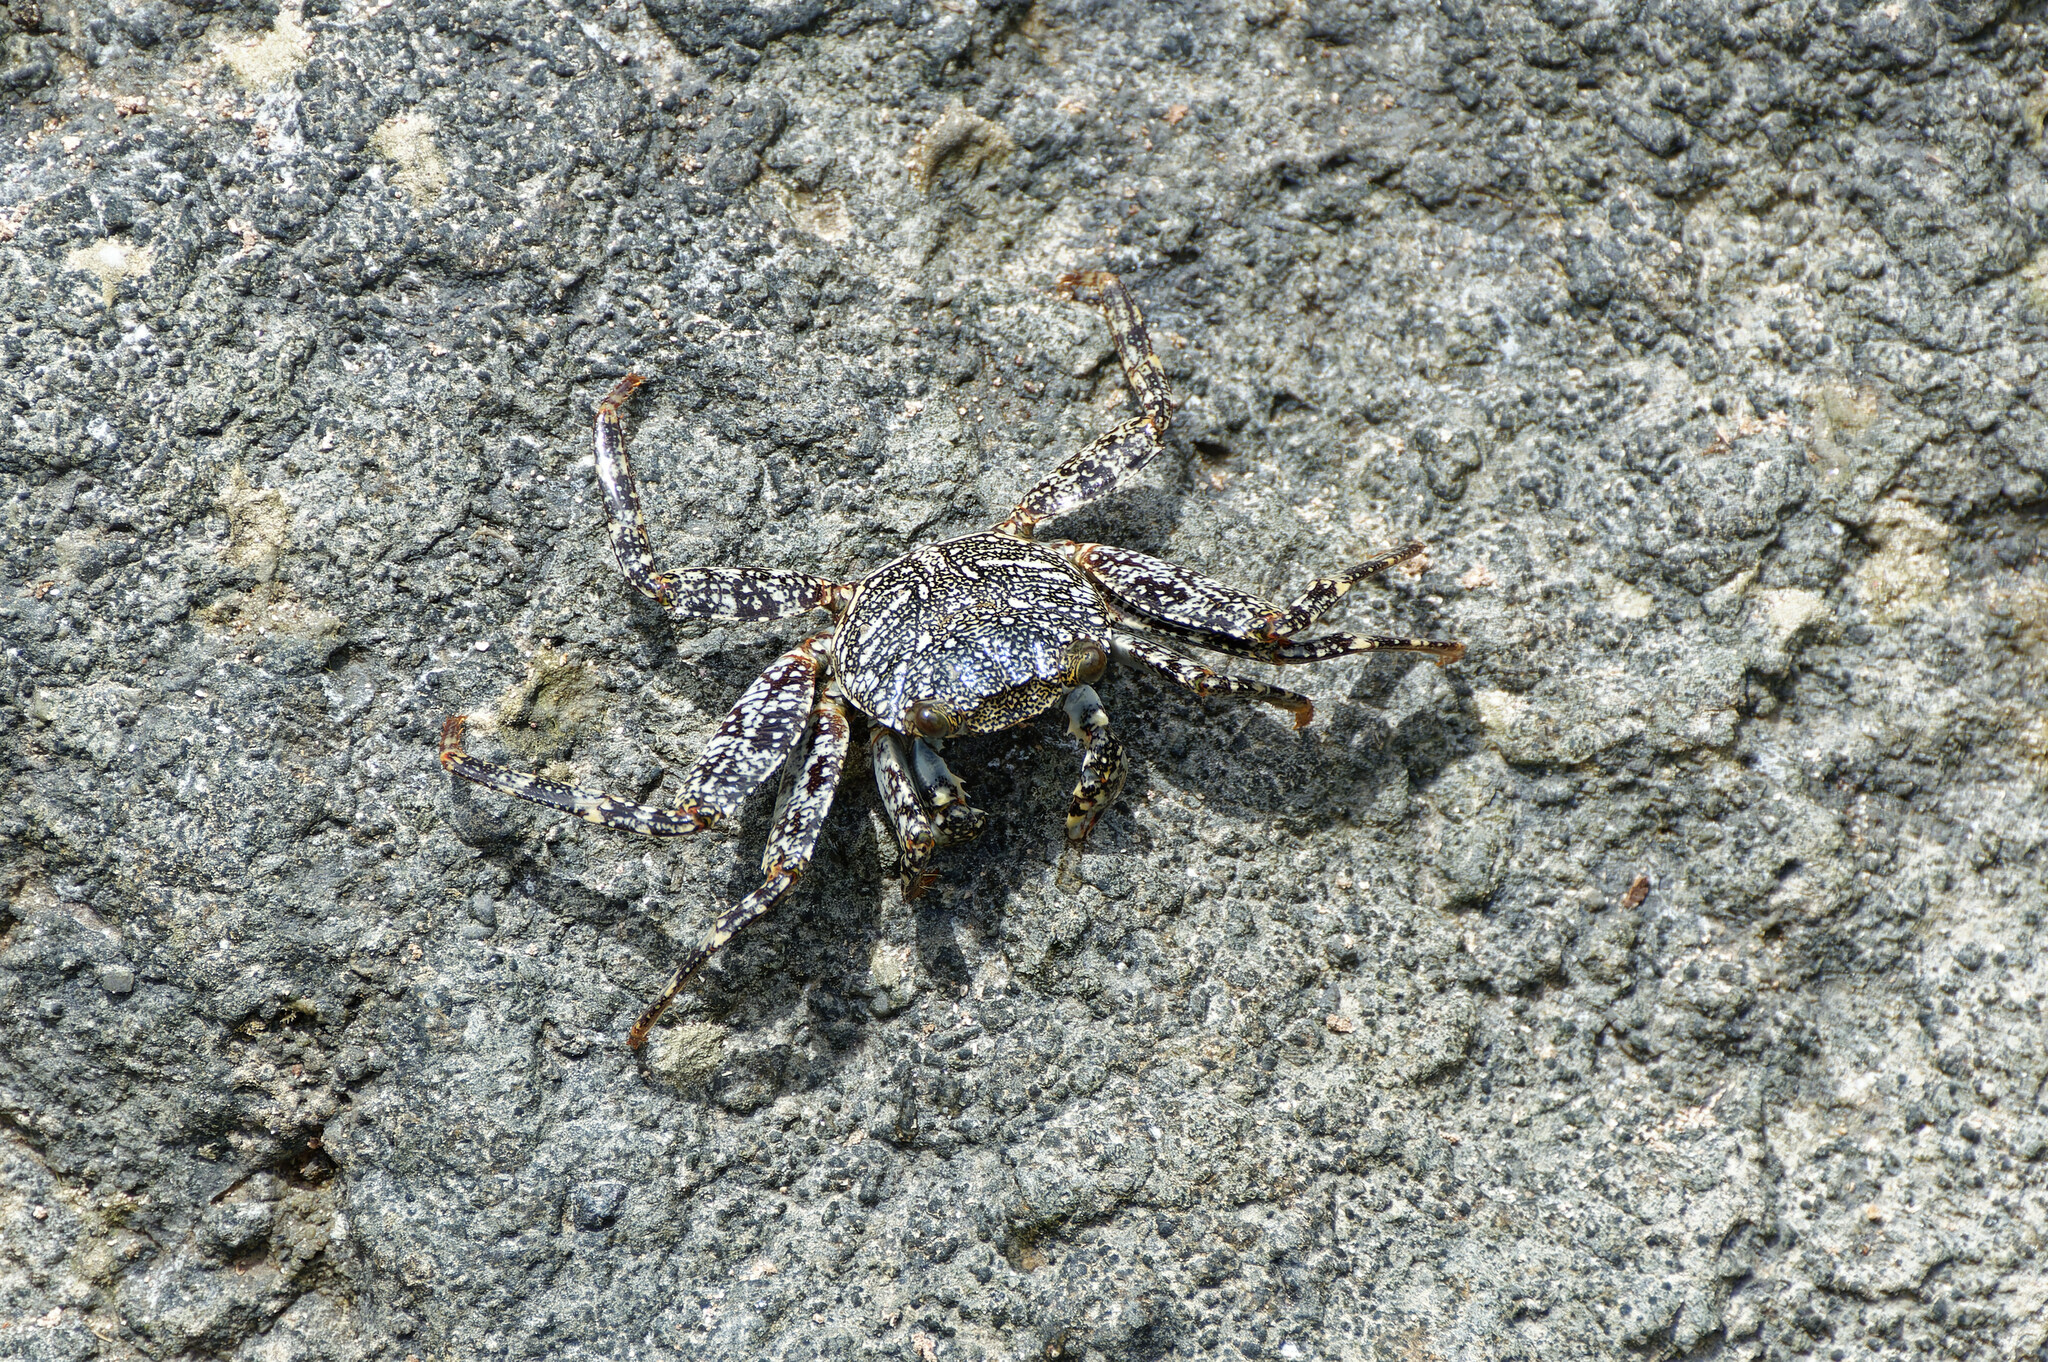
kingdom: Animalia
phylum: Arthropoda
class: Malacostraca
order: Decapoda
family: Grapsidae
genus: Grapsus
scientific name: Grapsus grapsus
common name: Sally lightfoot
